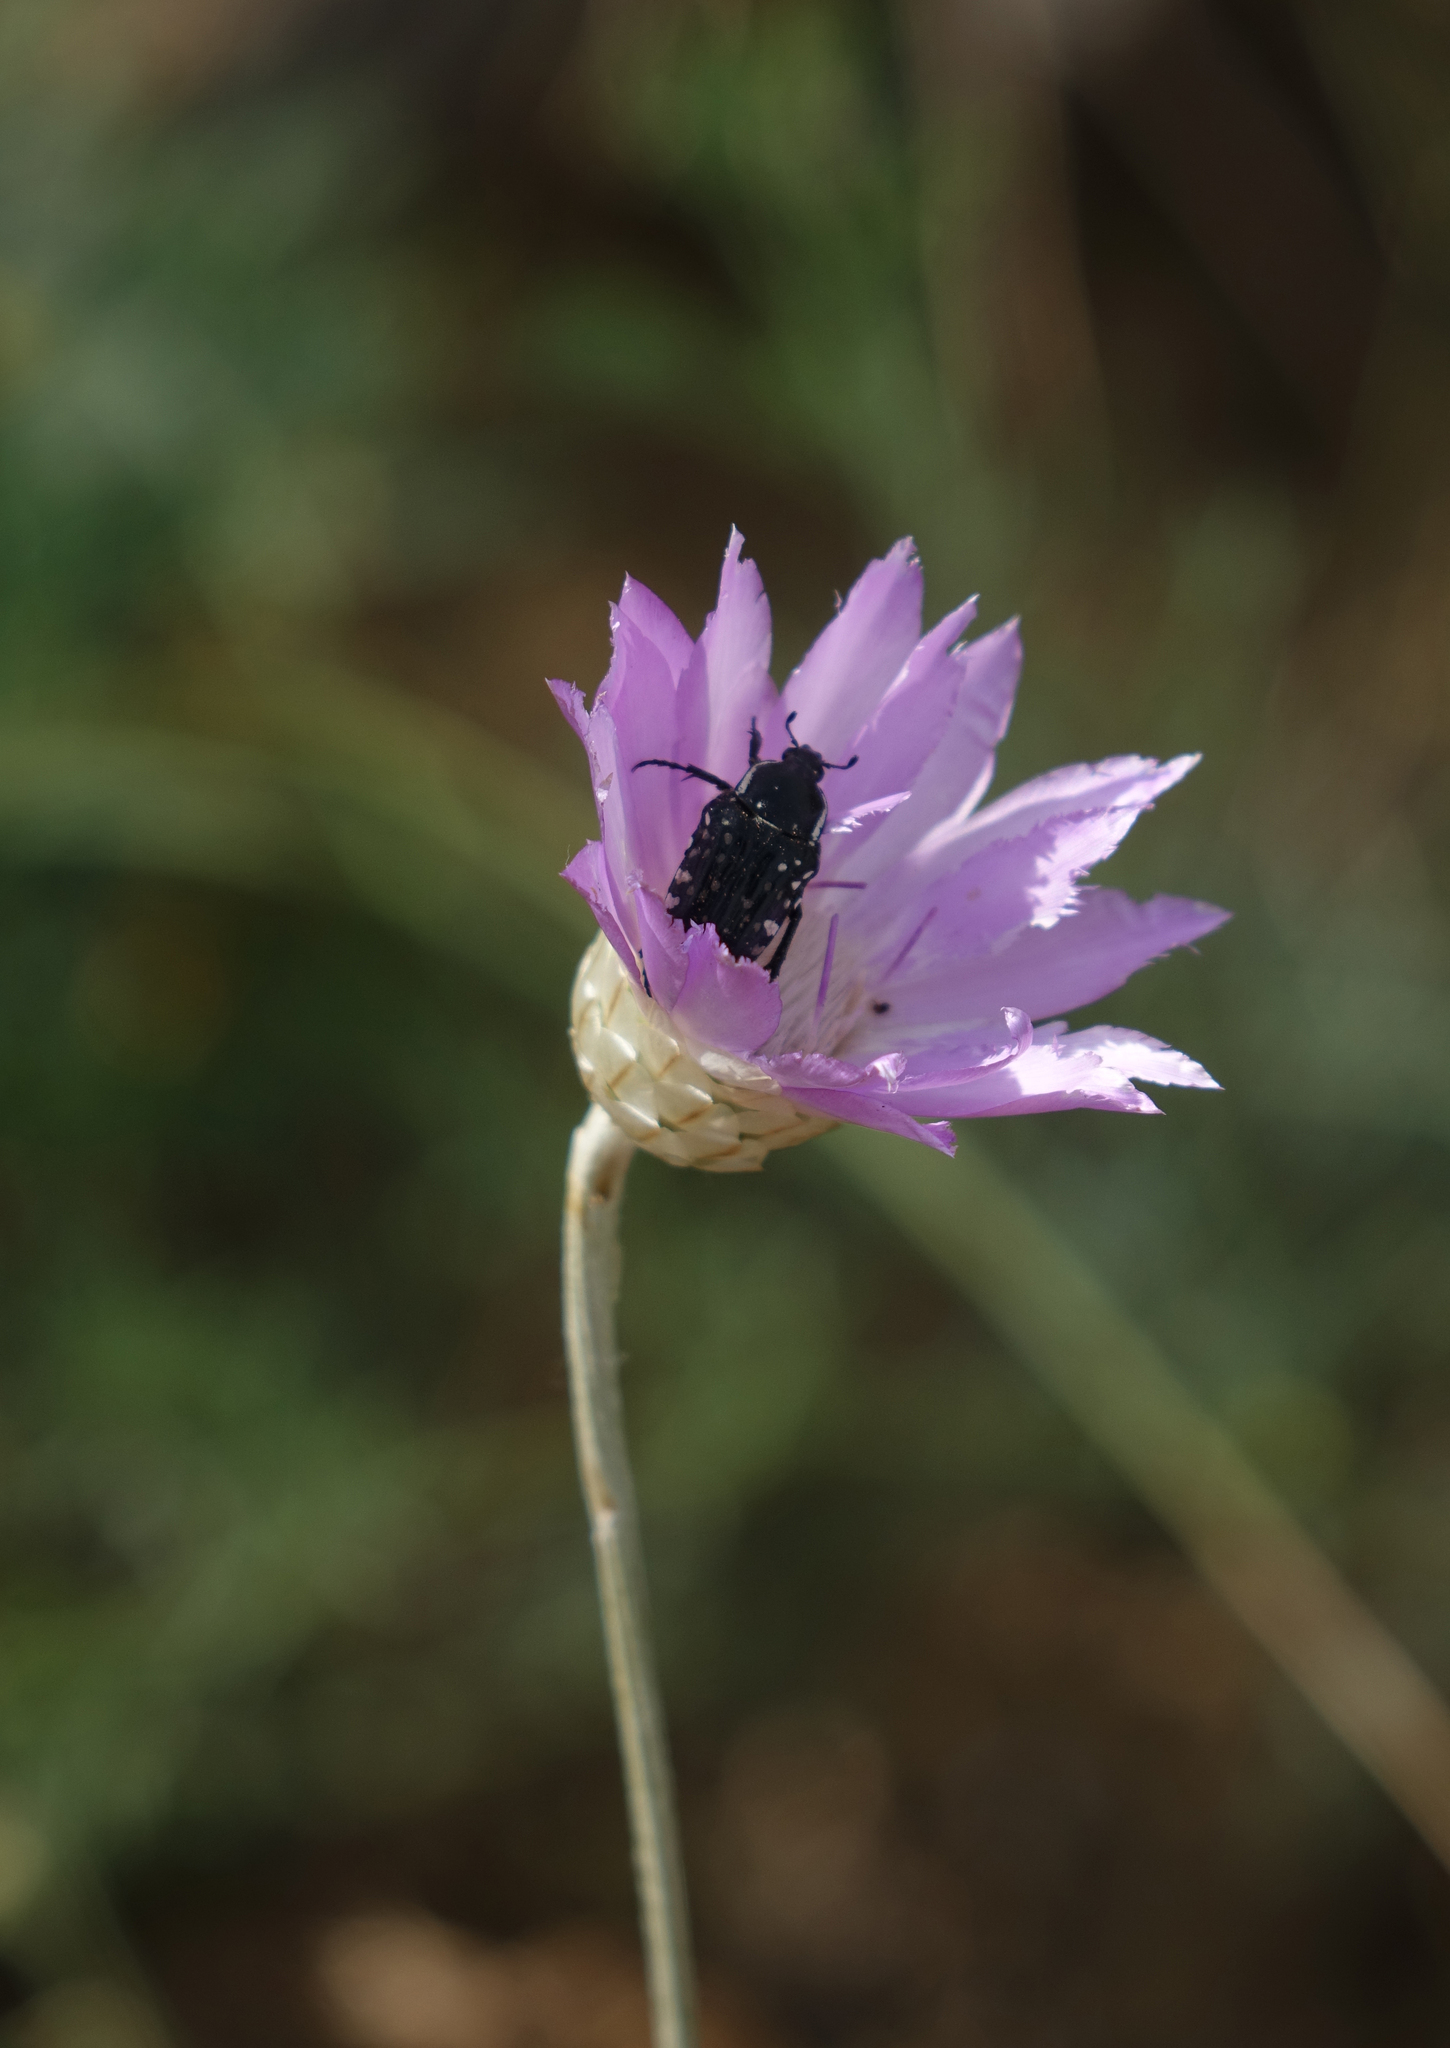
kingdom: Plantae
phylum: Tracheophyta
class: Magnoliopsida
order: Asterales
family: Asteraceae
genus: Xeranthemum
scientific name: Xeranthemum annuum
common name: Immortelle
